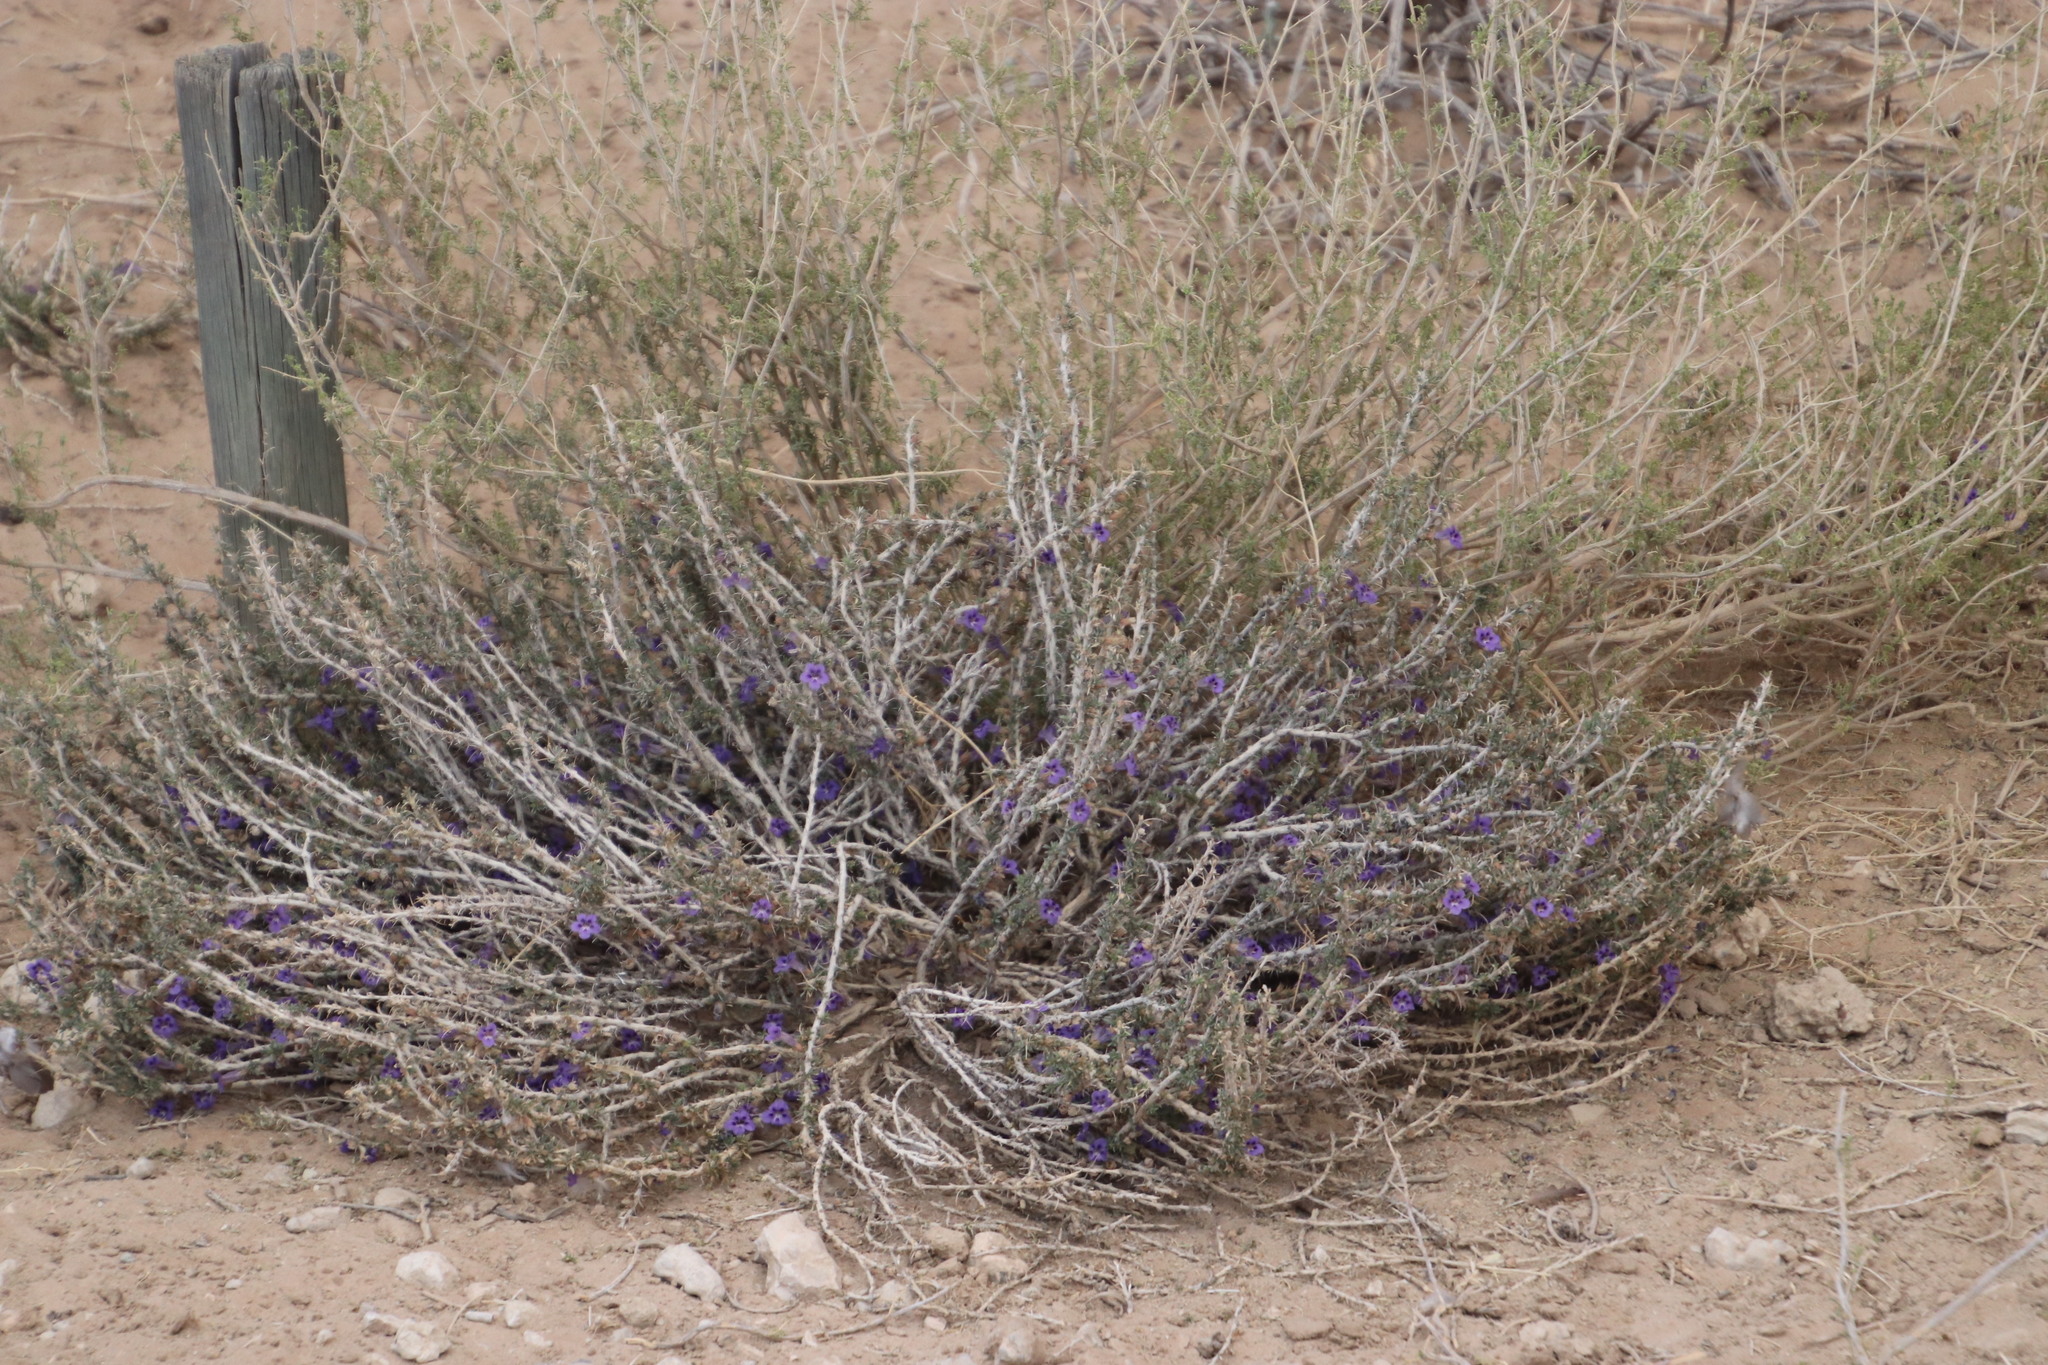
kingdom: Plantae
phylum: Tracheophyta
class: Magnoliopsida
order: Lamiales
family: Scrophulariaceae
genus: Aptosimum
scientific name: Aptosimum marlothii
